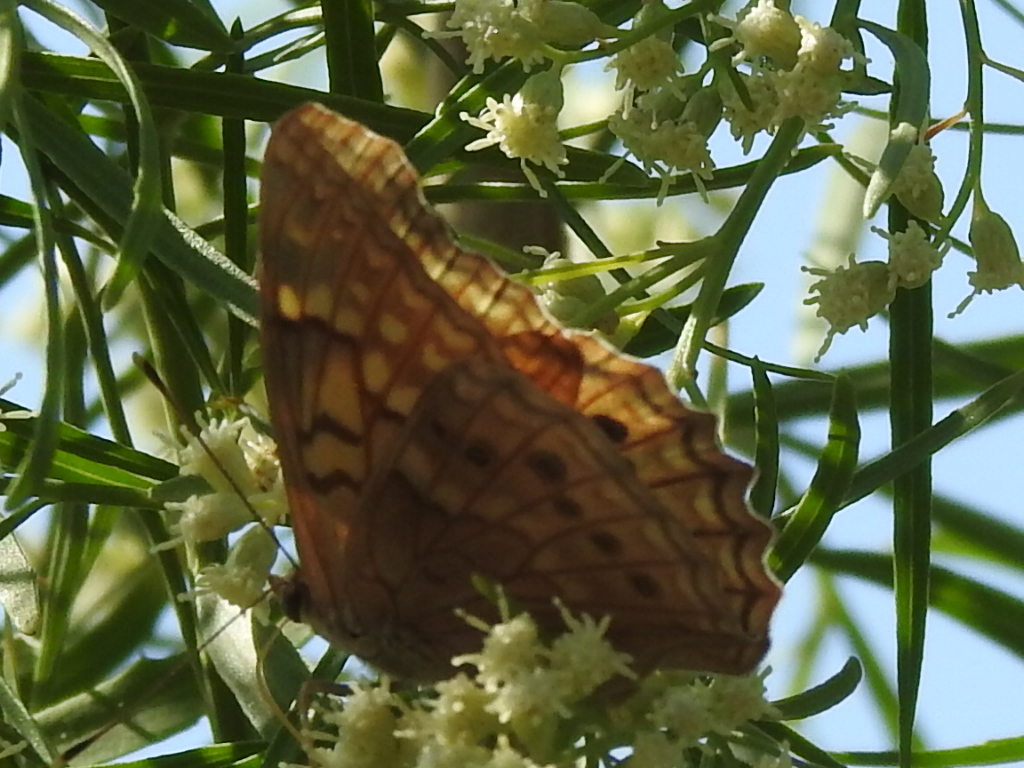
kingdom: Animalia
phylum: Arthropoda
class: Insecta
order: Lepidoptera
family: Nymphalidae
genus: Asterocampa
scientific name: Asterocampa clyton
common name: Tawny emperor
